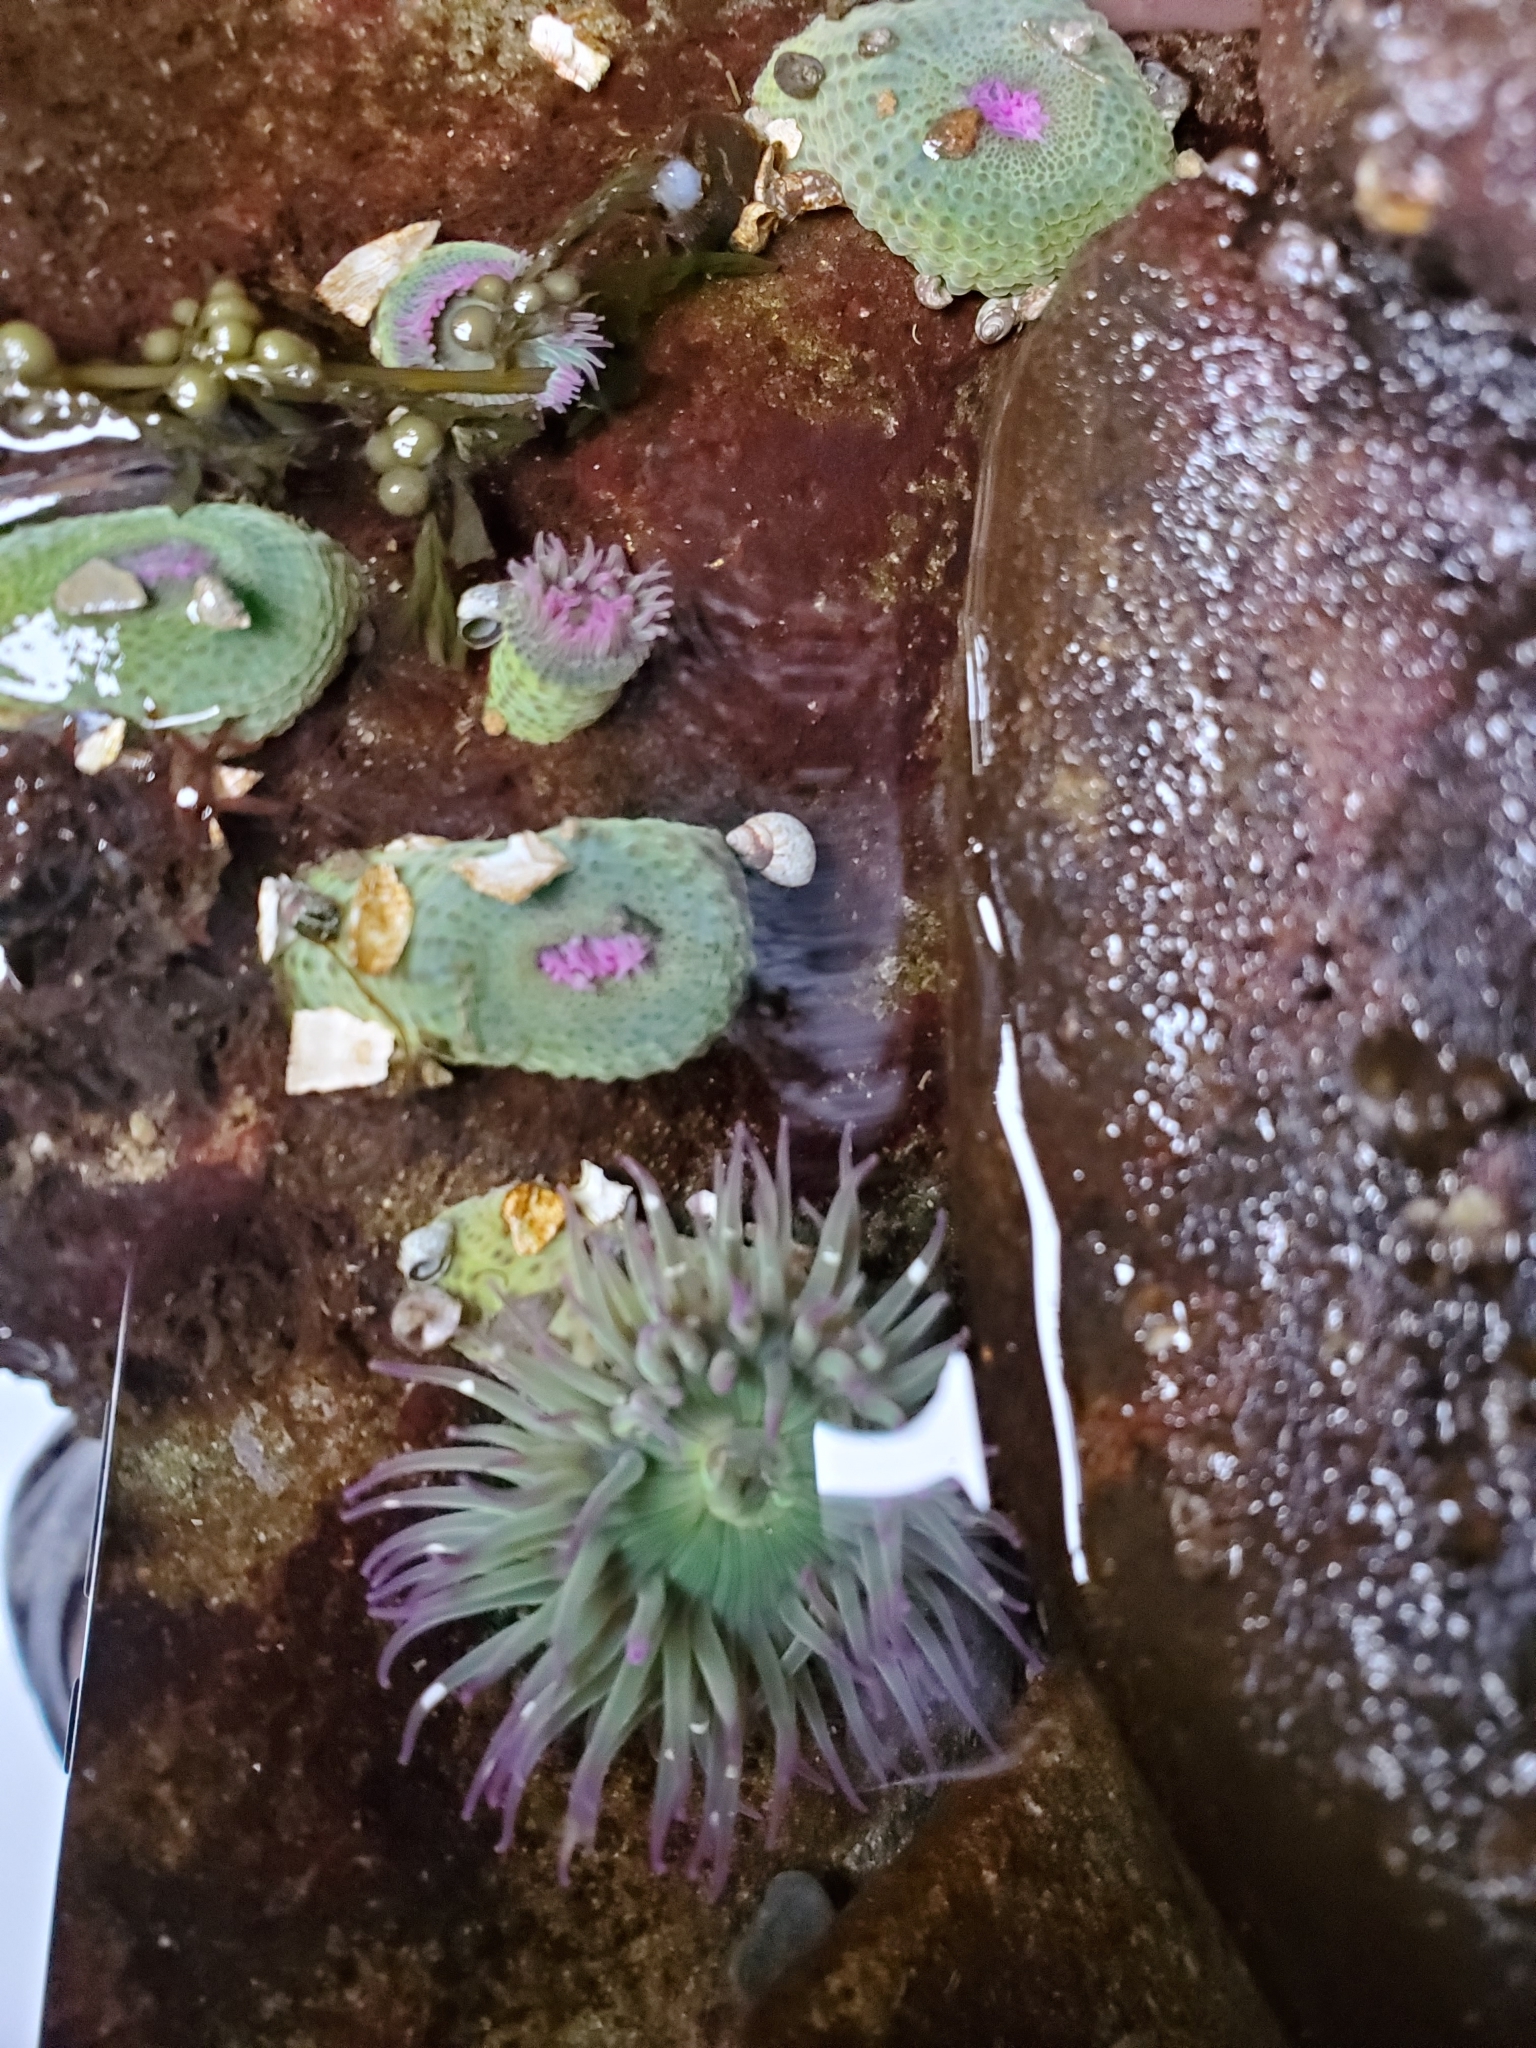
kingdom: Animalia
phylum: Cnidaria
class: Anthozoa
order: Actiniaria
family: Actiniidae
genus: Anthopleura
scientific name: Anthopleura elegantissima
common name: Clonal anemone
